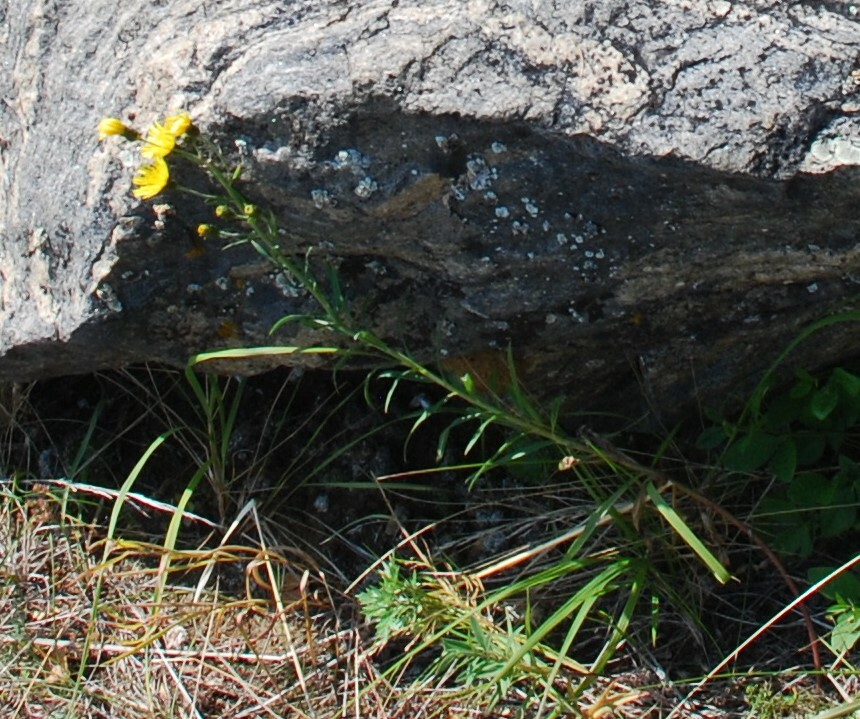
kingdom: Plantae
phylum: Tracheophyta
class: Magnoliopsida
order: Asterales
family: Asteraceae
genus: Hieracium
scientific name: Hieracium umbellatum
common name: Northern hawkweed
